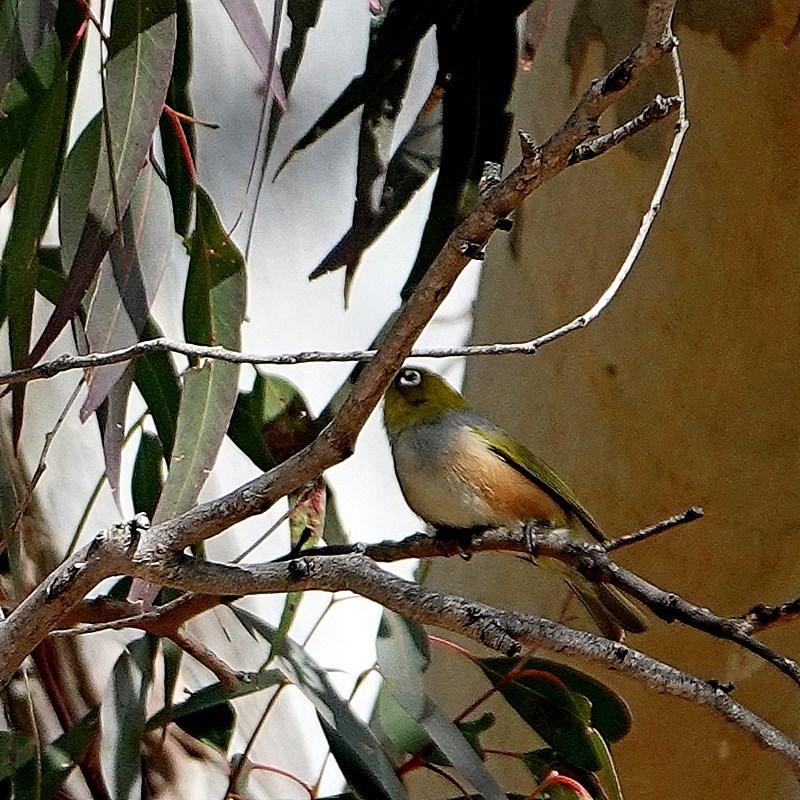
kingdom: Animalia
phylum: Chordata
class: Aves
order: Passeriformes
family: Zosteropidae
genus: Zosterops
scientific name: Zosterops lateralis
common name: Silvereye
